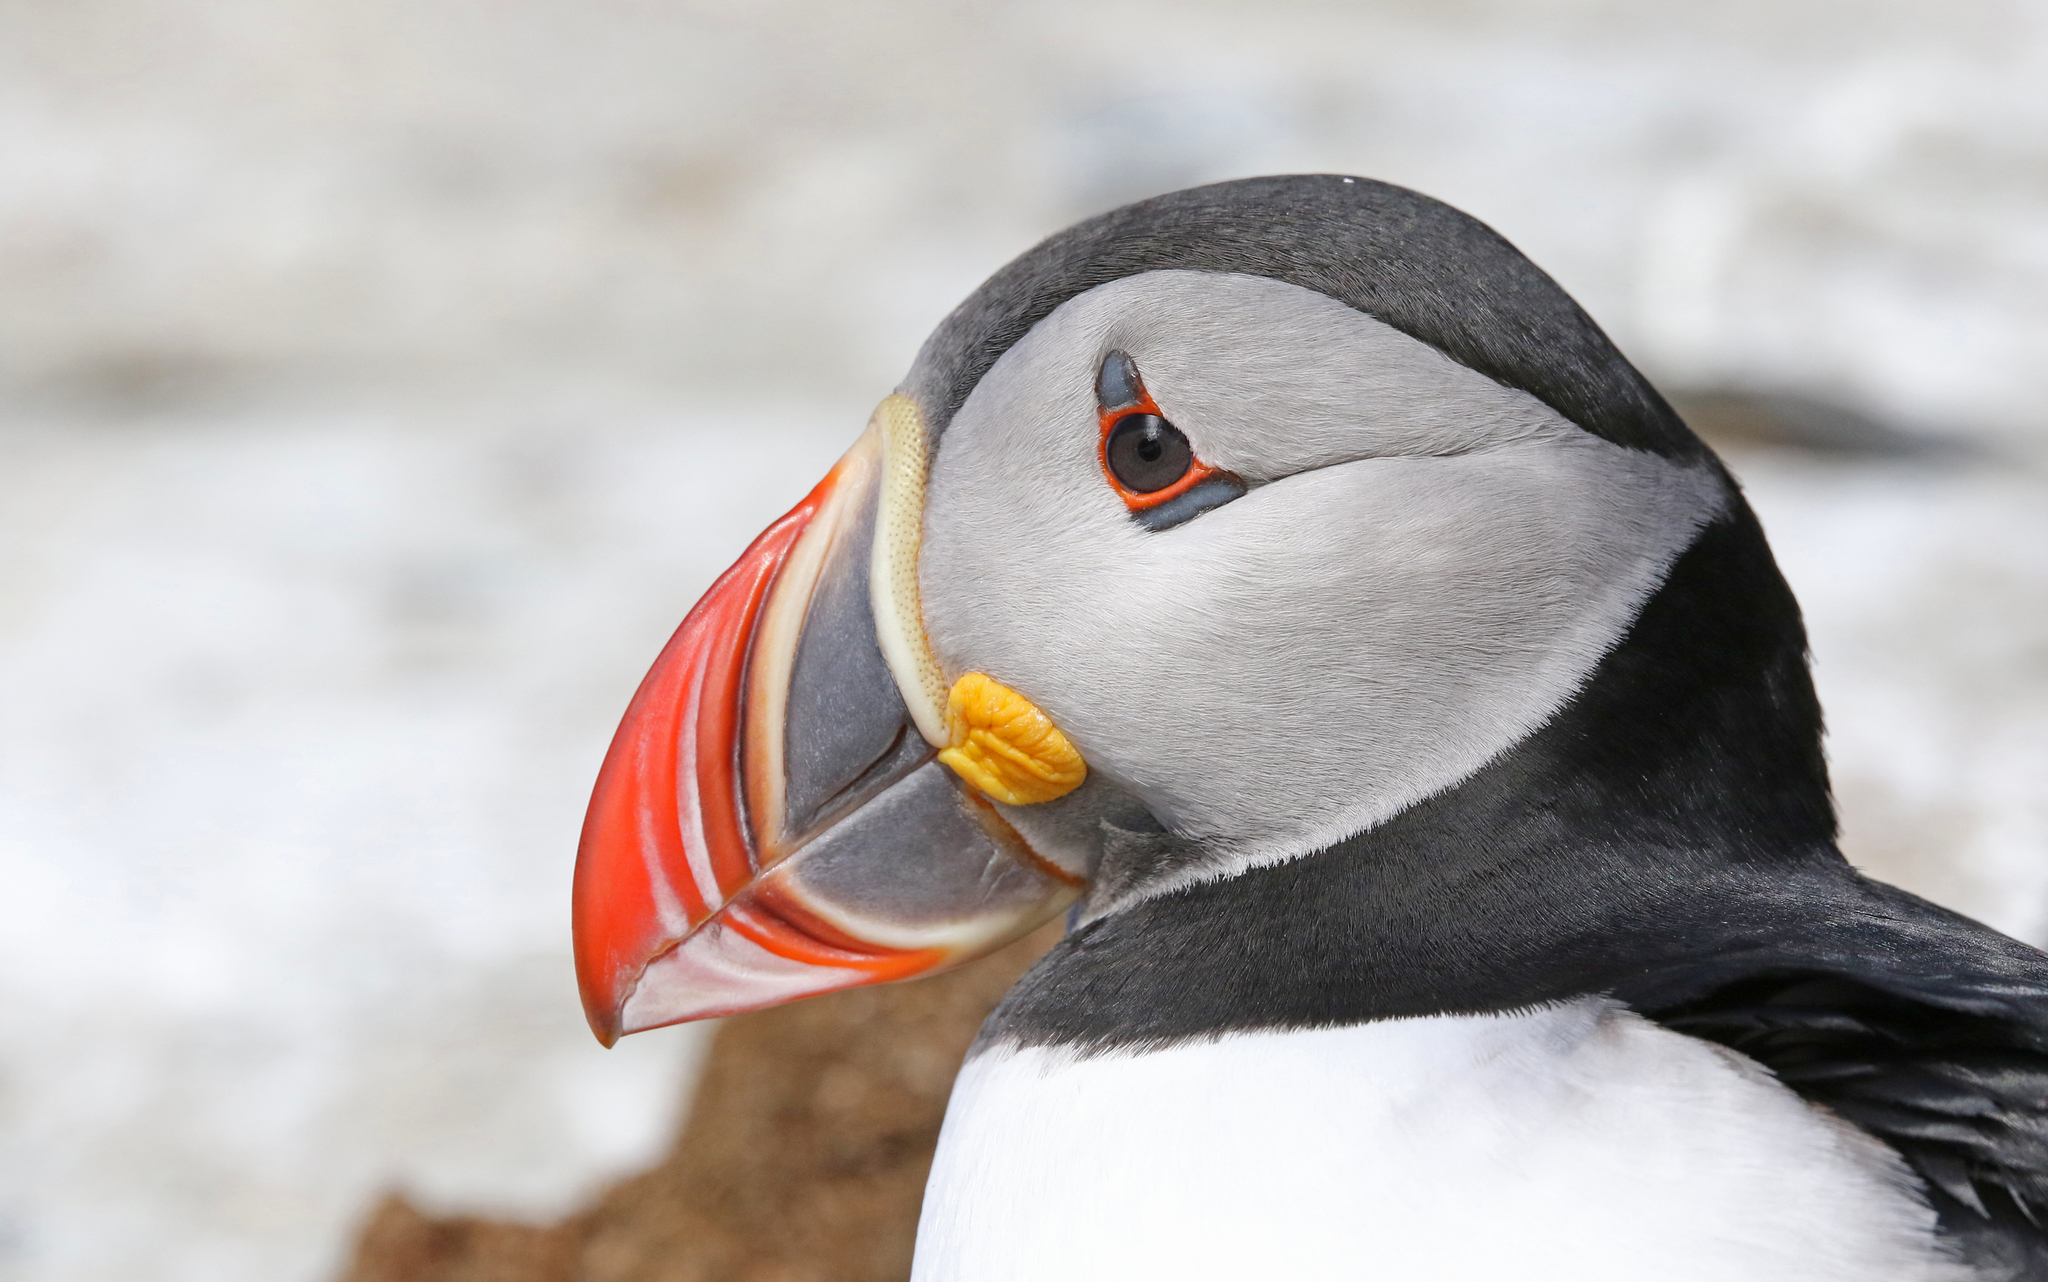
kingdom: Animalia
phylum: Chordata
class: Aves
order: Charadriiformes
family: Alcidae
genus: Fratercula
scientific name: Fratercula arctica
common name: Atlantic puffin
